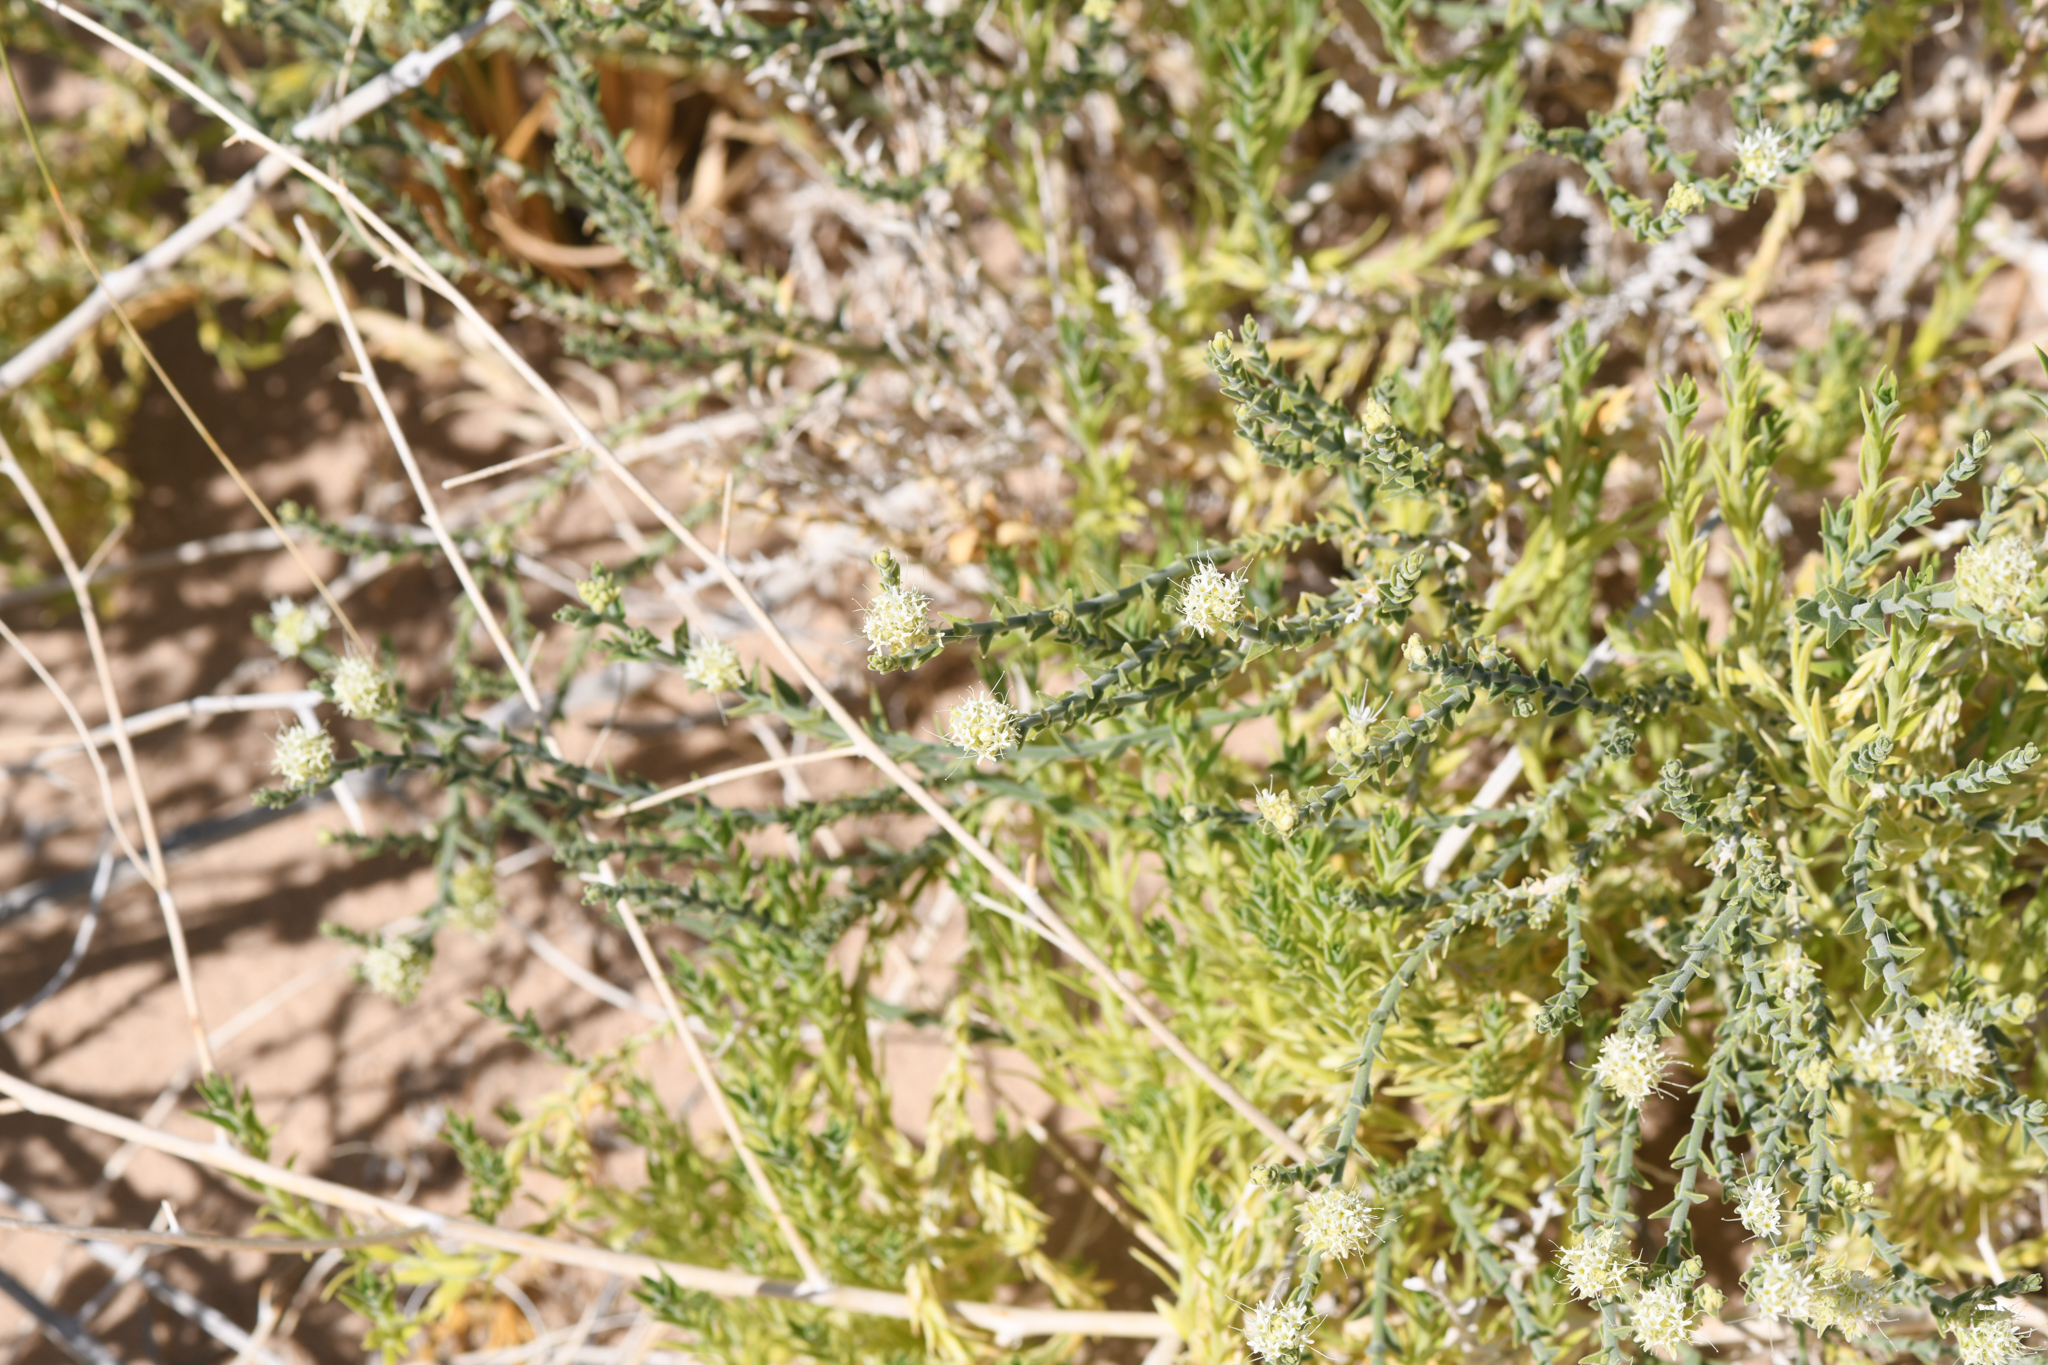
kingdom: Plantae
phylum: Tracheophyta
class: Magnoliopsida
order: Cornales
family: Loasaceae
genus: Petalonyx
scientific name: Petalonyx thurberi
